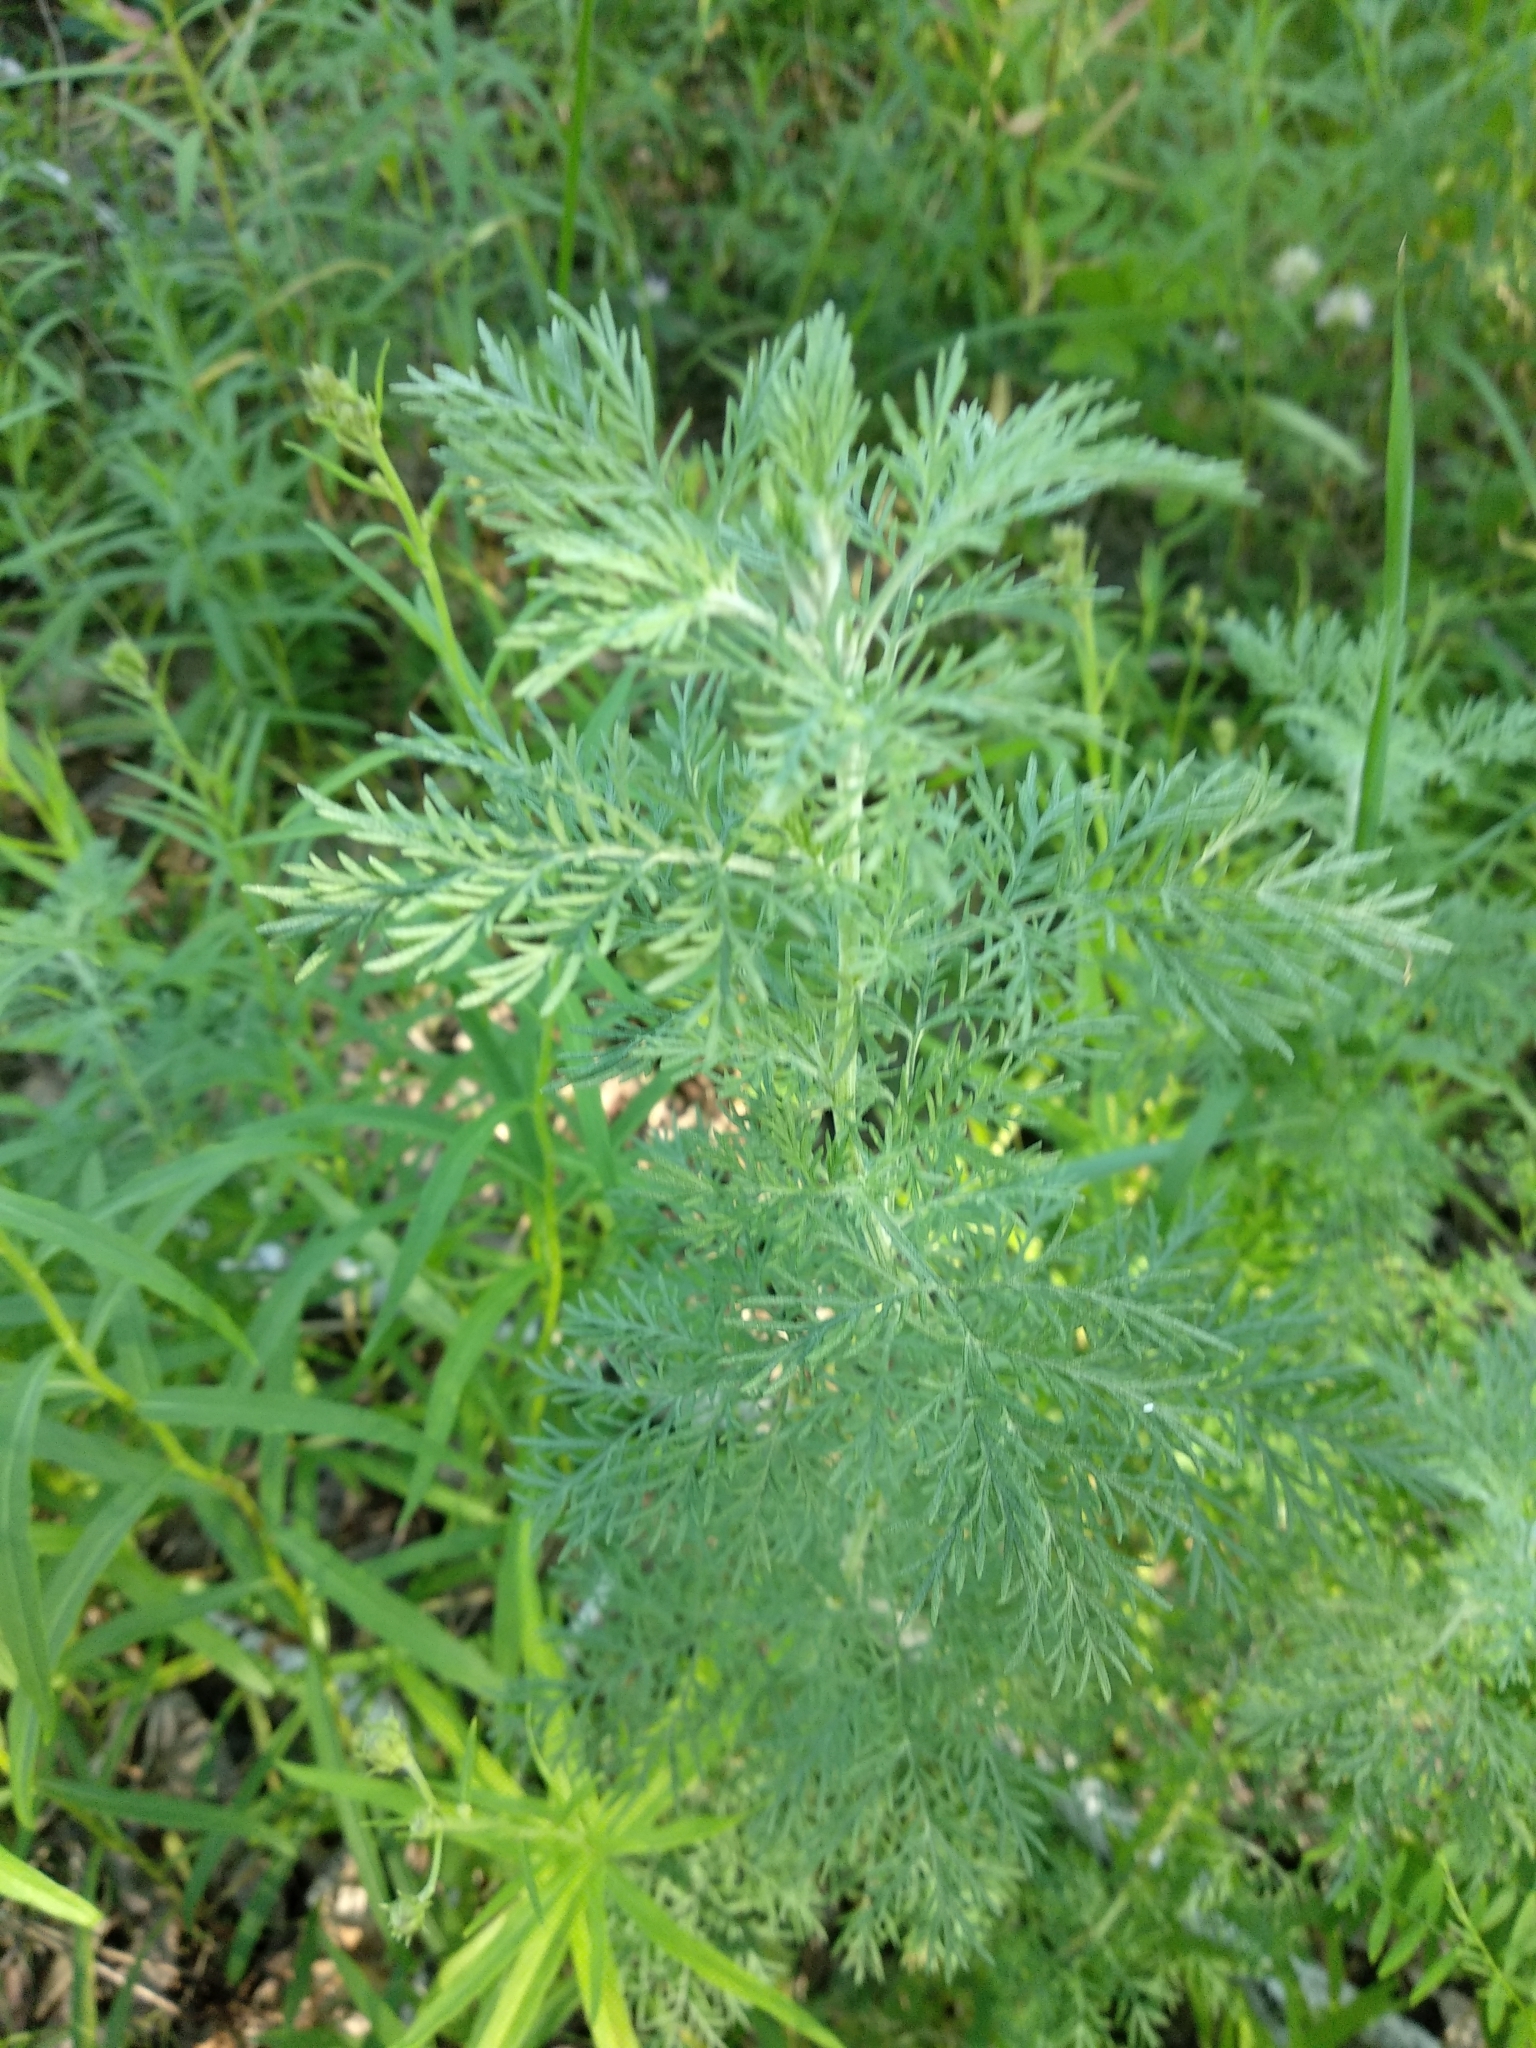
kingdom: Plantae
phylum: Tracheophyta
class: Magnoliopsida
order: Asterales
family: Asteraceae
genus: Artemisia
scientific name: Artemisia abrotanum
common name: Southernwood
